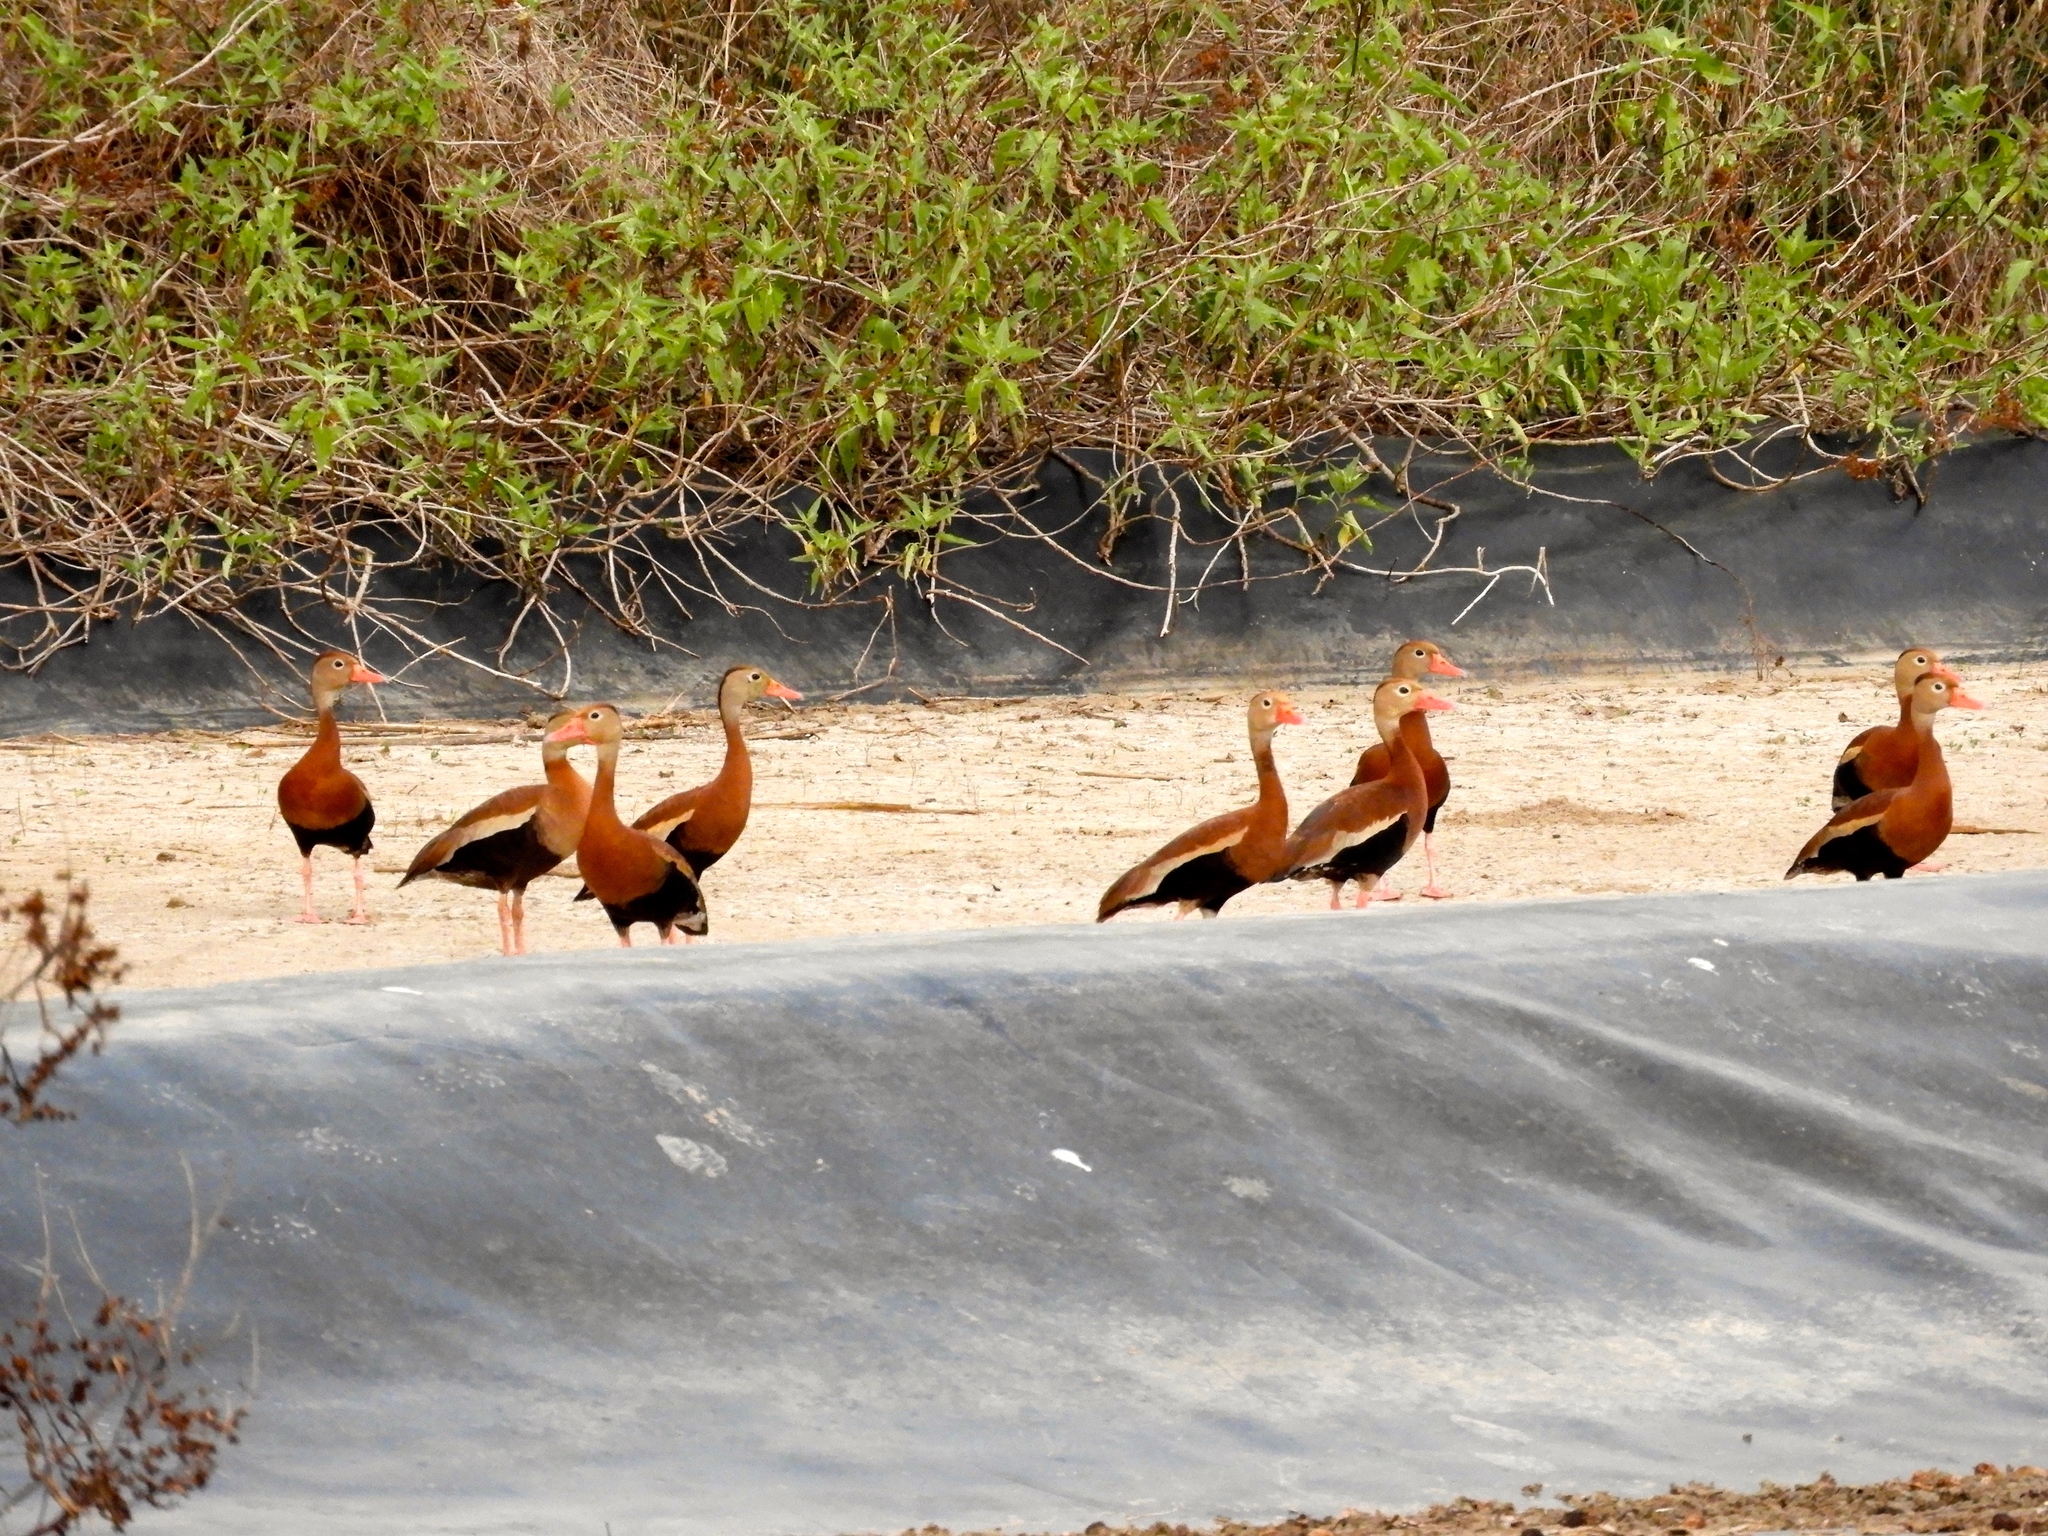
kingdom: Animalia
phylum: Chordata
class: Aves
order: Anseriformes
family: Anatidae
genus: Dendrocygna
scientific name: Dendrocygna autumnalis
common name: Black-bellied whistling duck
